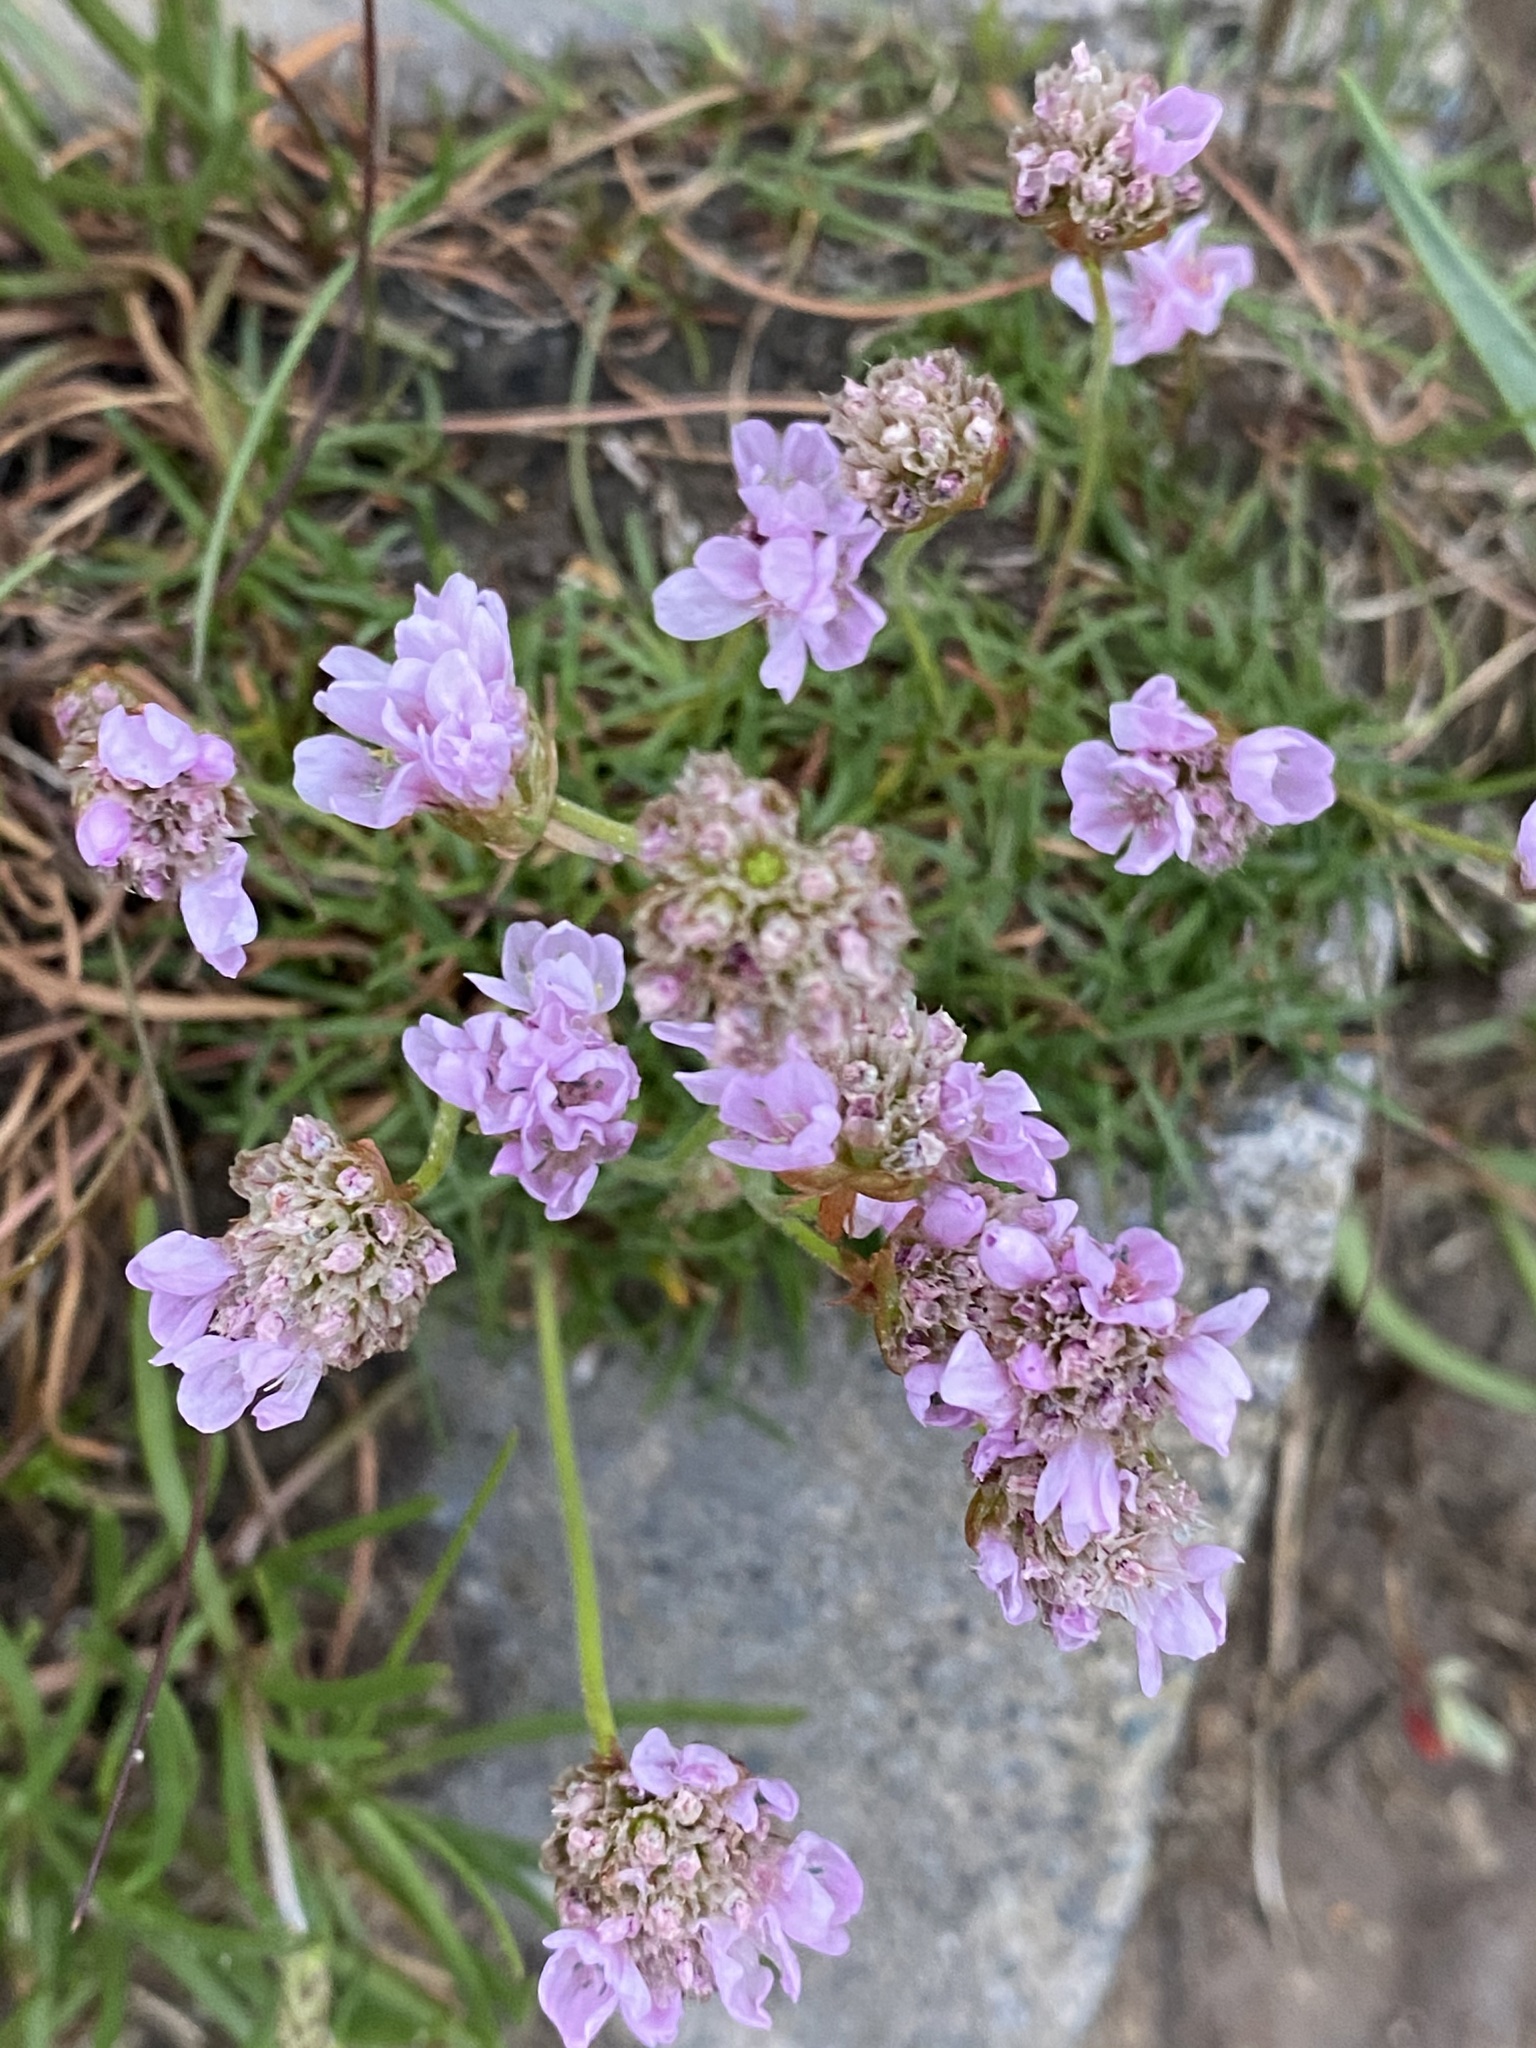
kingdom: Plantae
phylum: Tracheophyta
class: Magnoliopsida
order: Caryophyllales
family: Plumbaginaceae
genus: Armeria
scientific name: Armeria maritima
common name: Thrift
